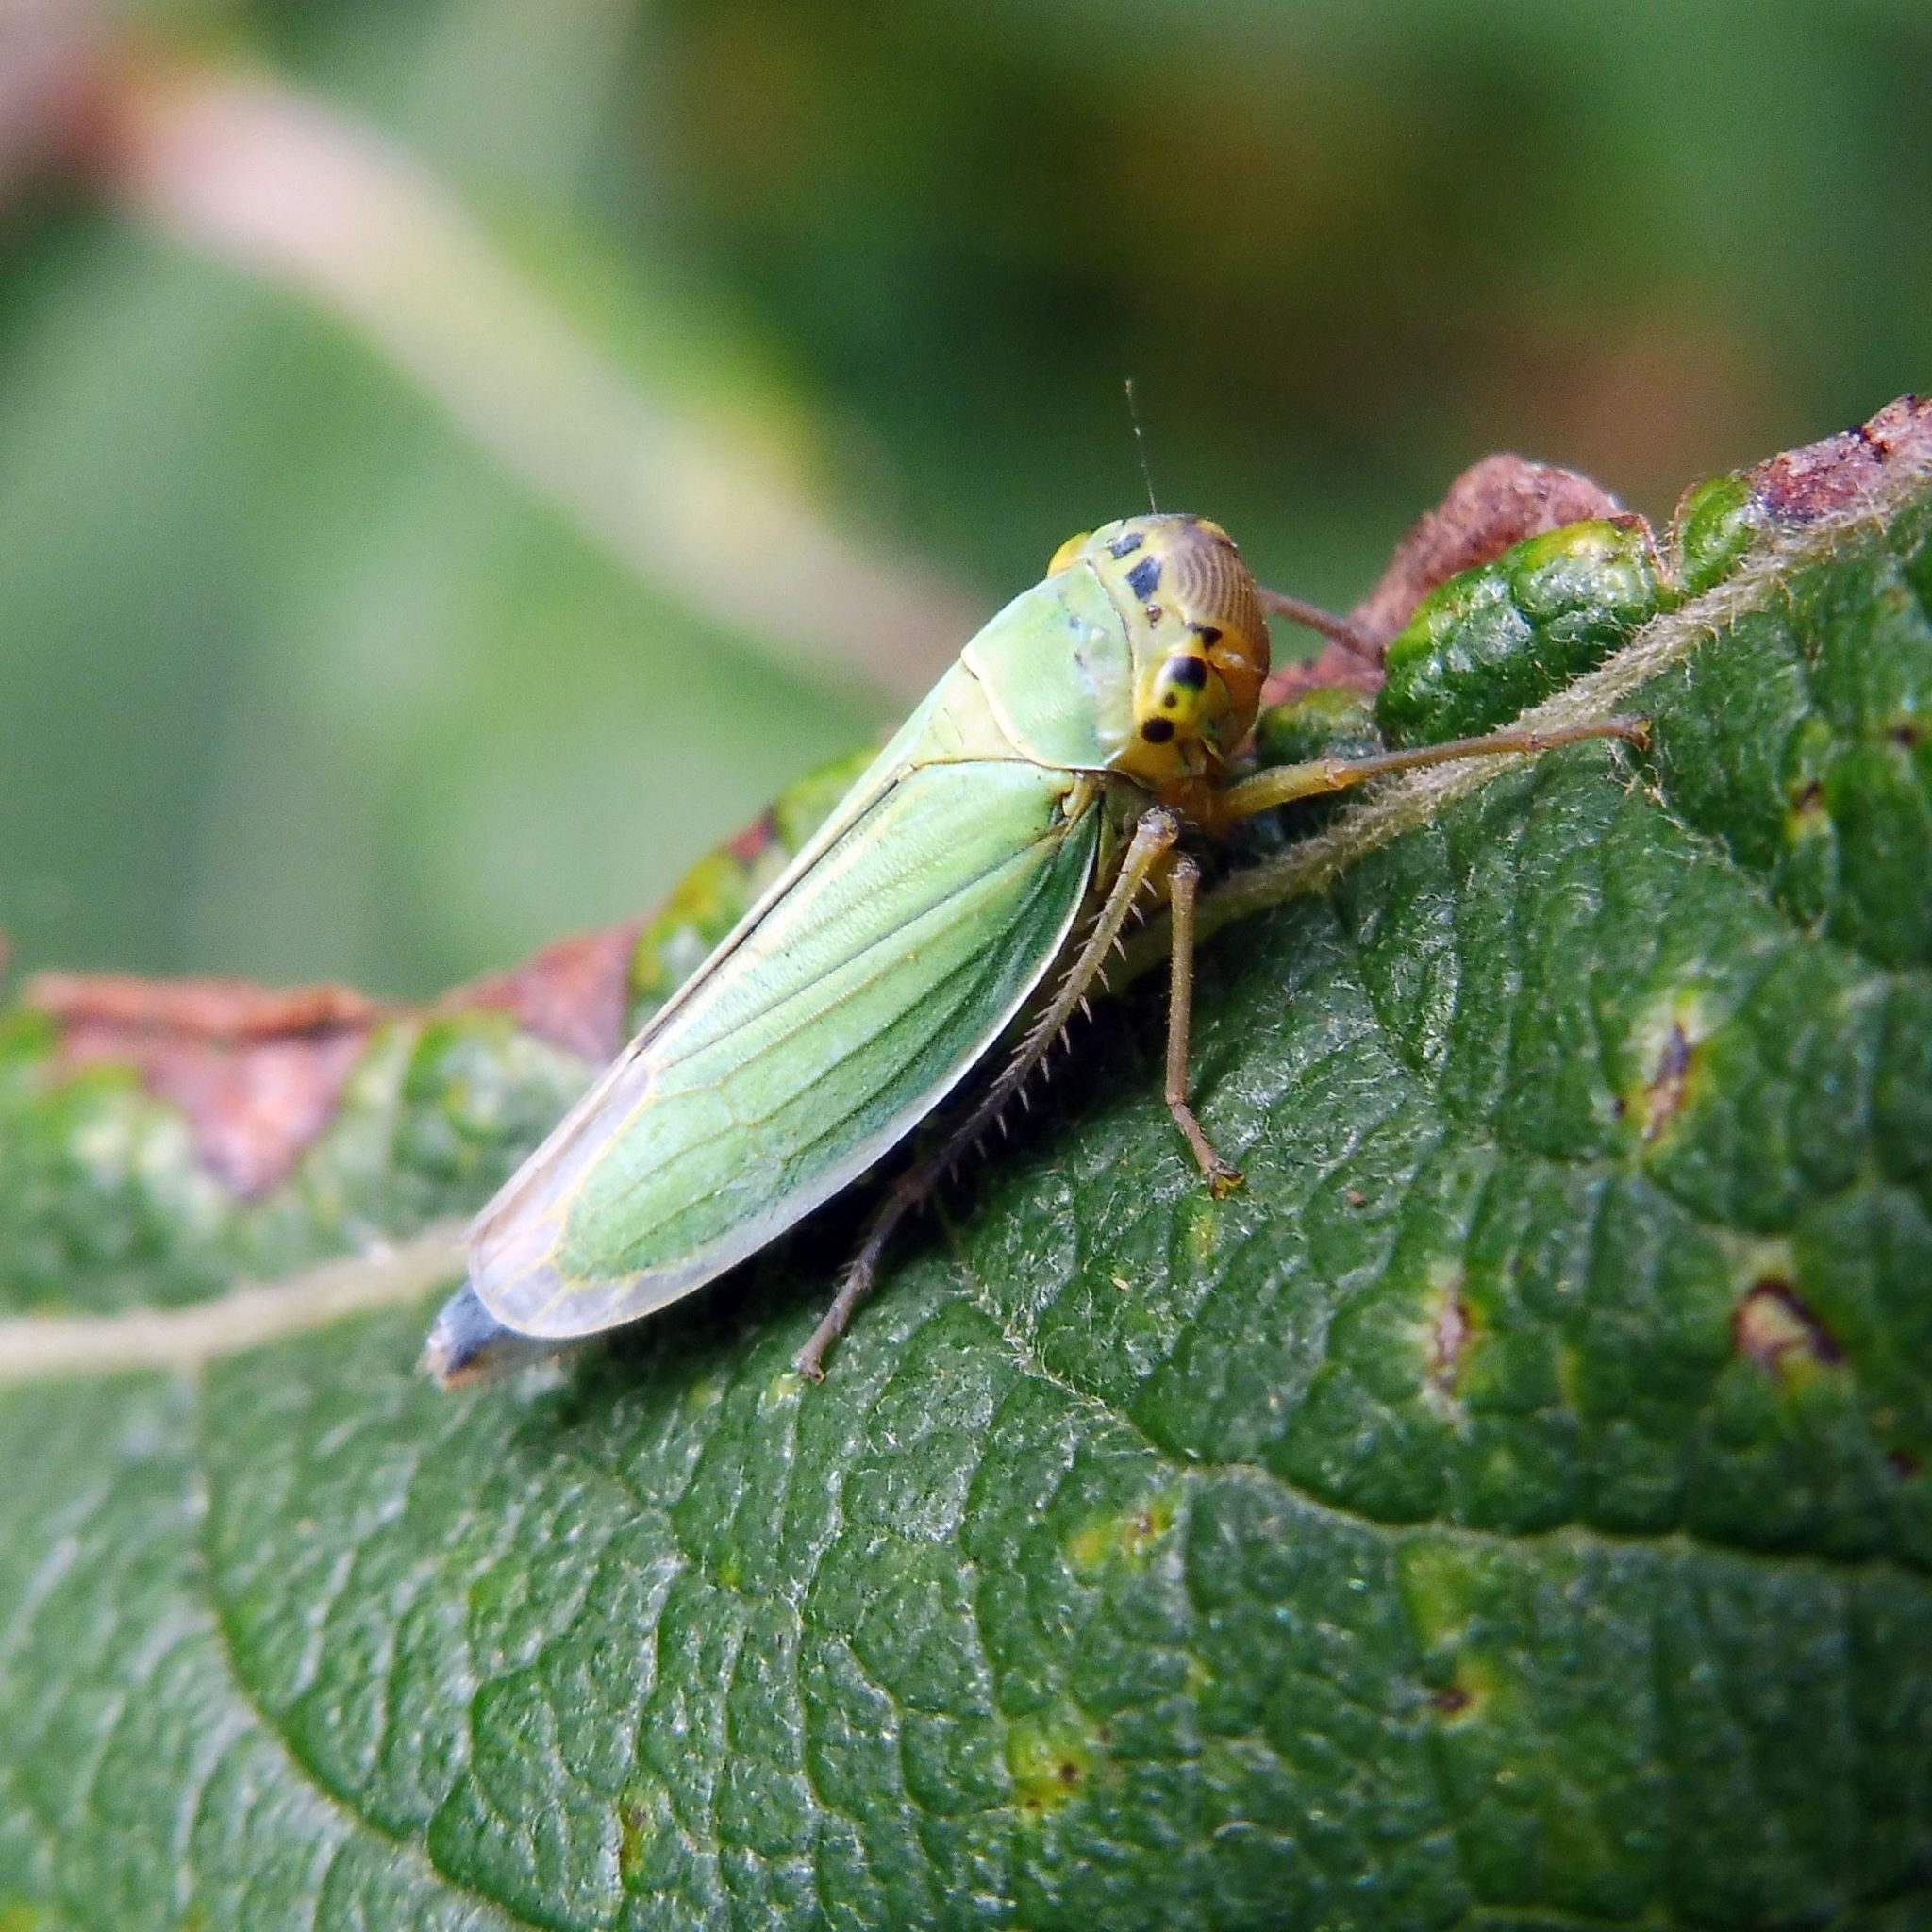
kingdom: Animalia
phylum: Arthropoda
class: Insecta
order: Hemiptera
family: Cicadellidae
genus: Cicadella
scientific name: Cicadella viridis
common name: Leafhopper
